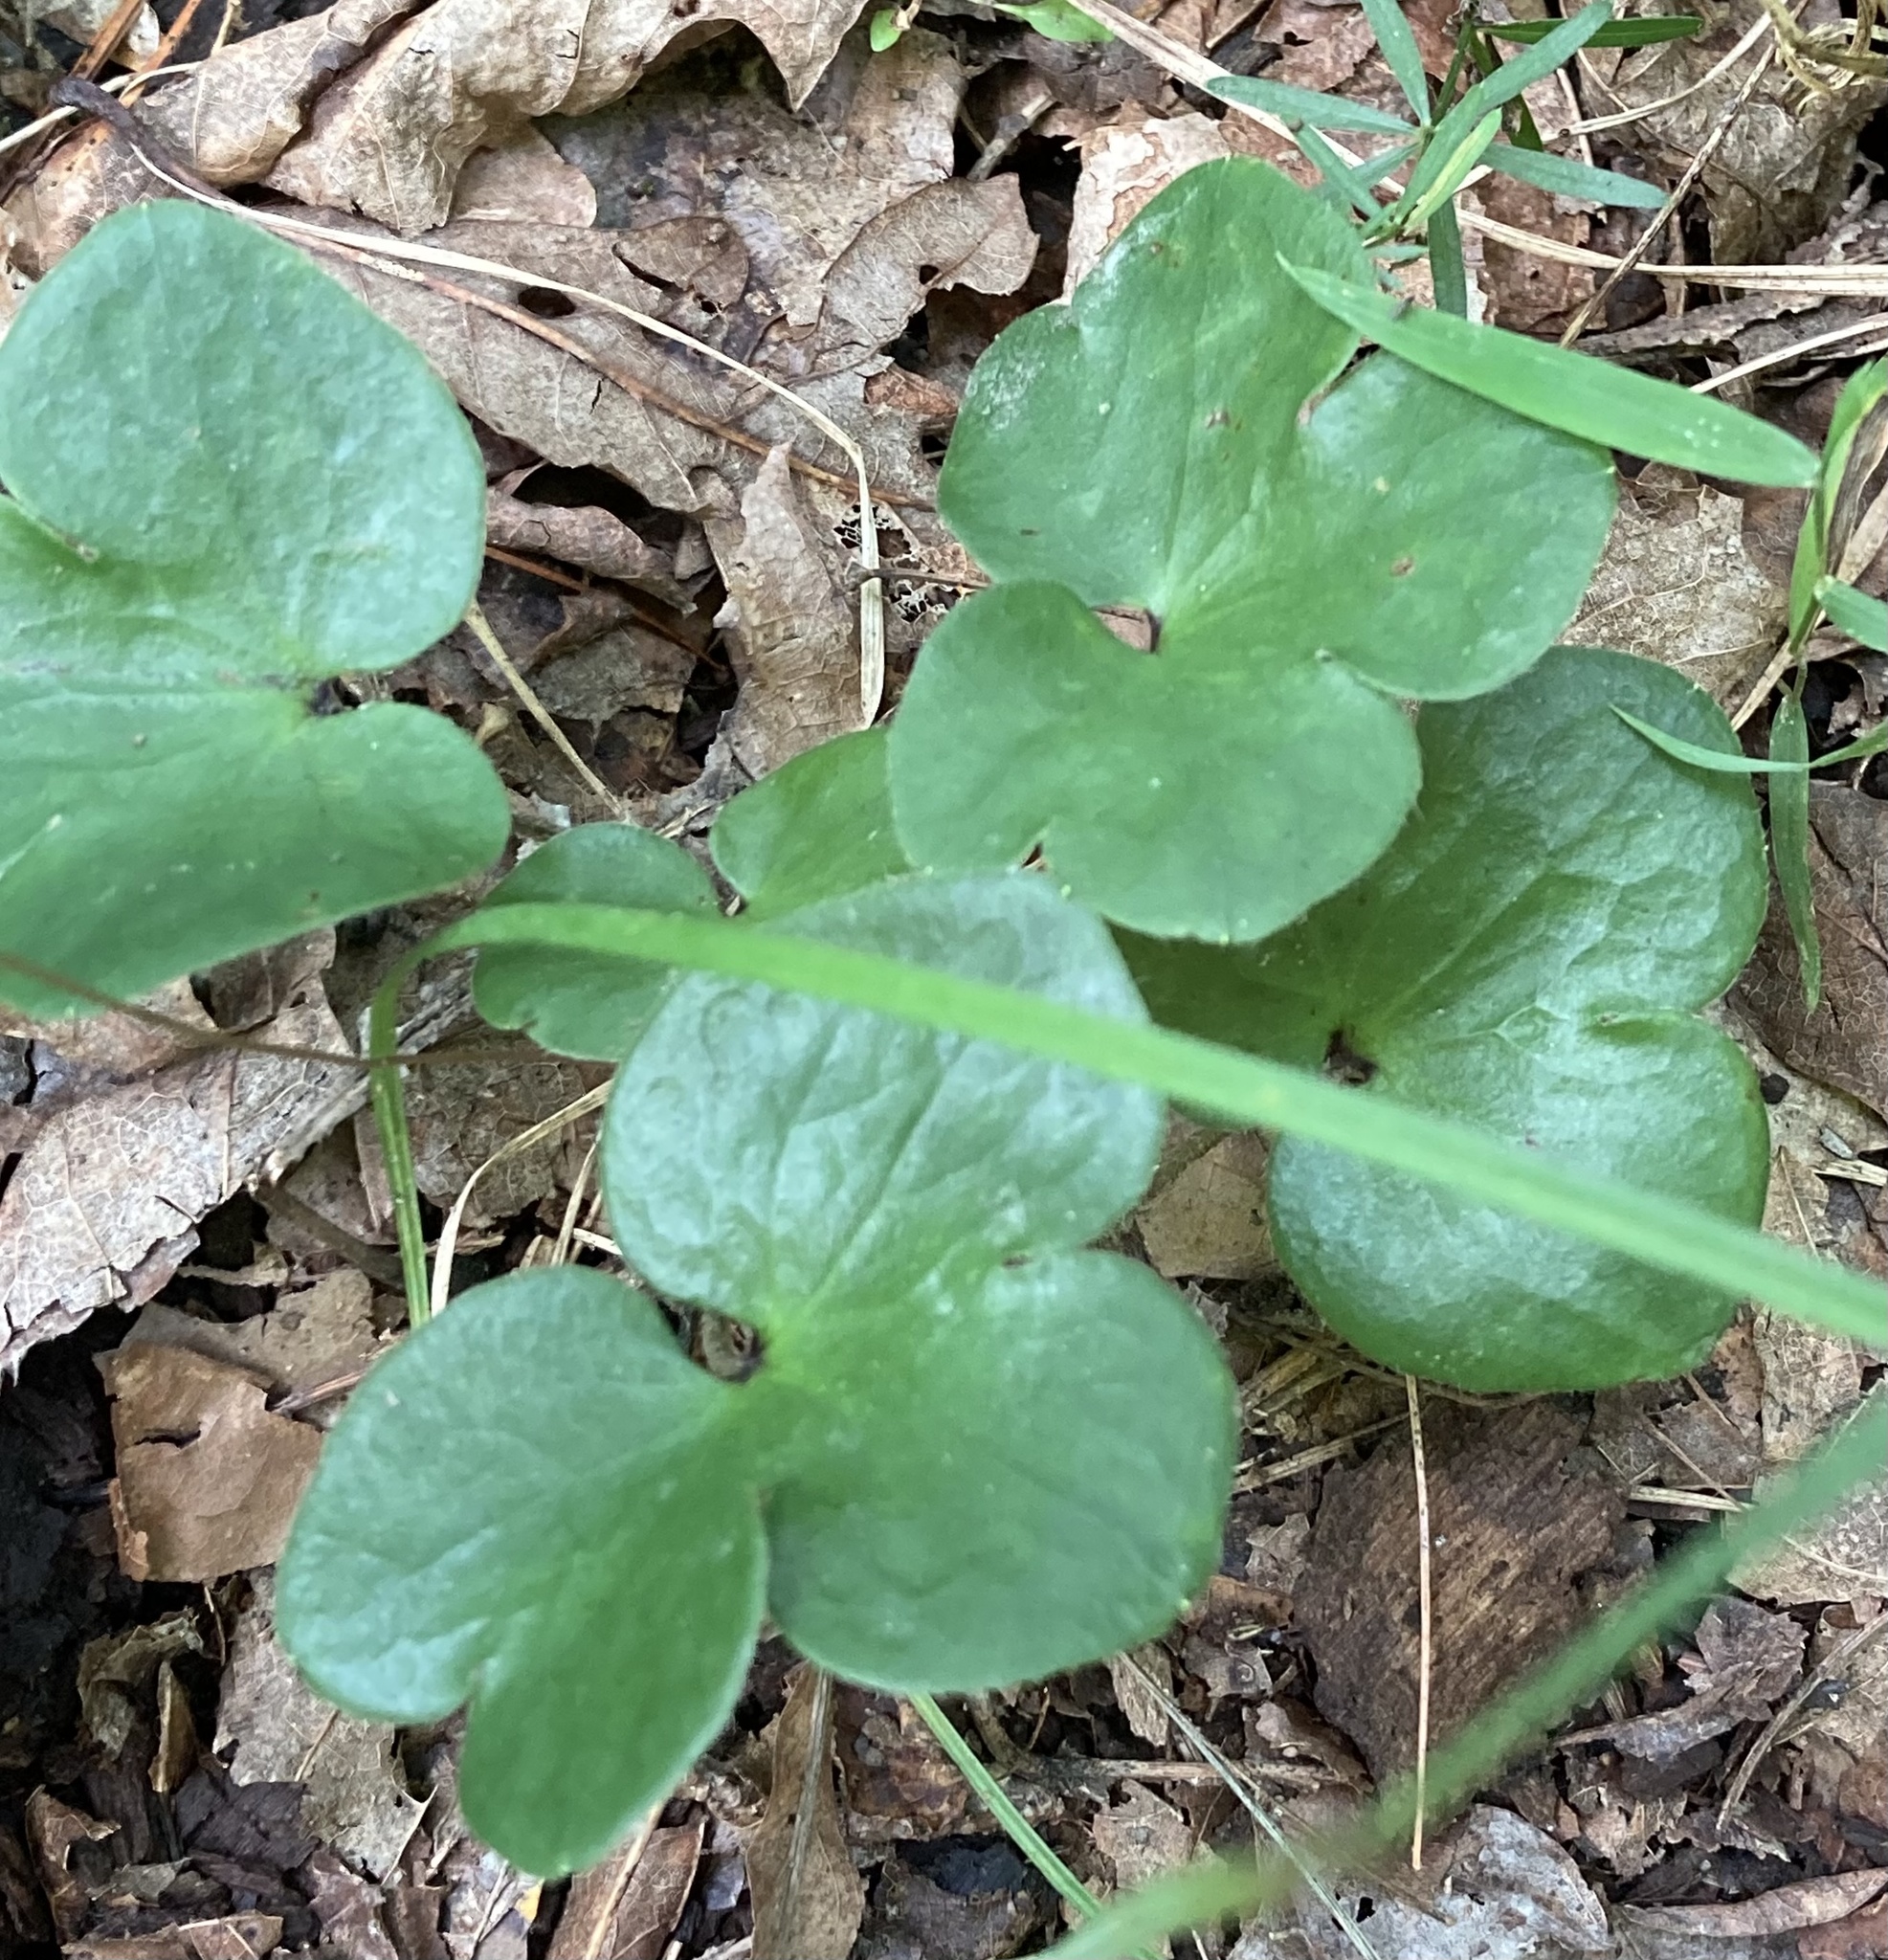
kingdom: Plantae
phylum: Tracheophyta
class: Magnoliopsida
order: Ranunculales
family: Ranunculaceae
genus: Hepatica
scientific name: Hepatica americana
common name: American hepatica
